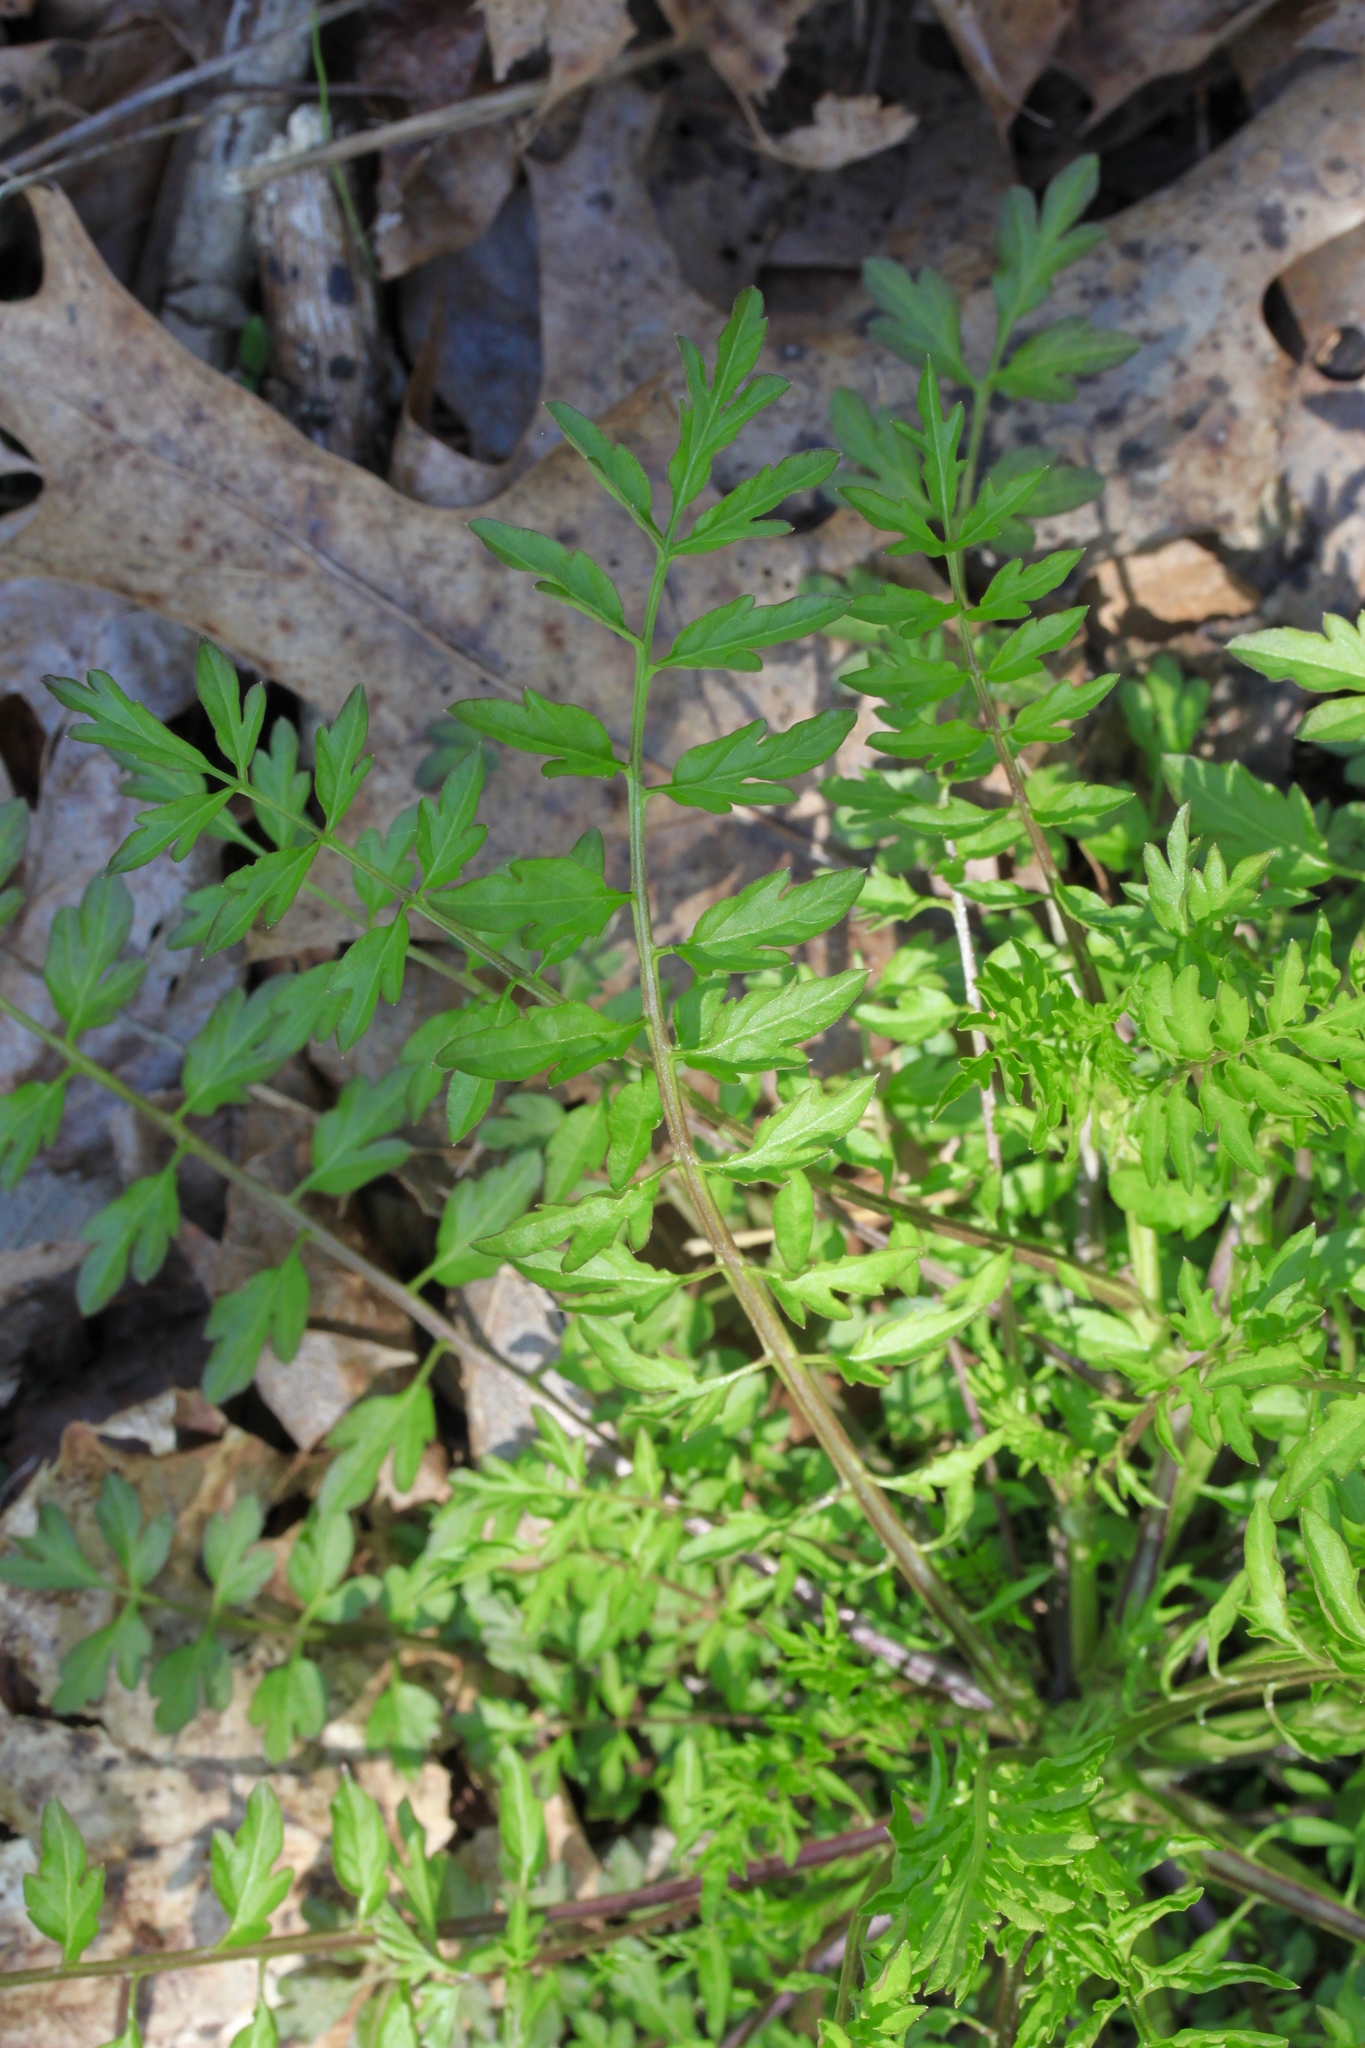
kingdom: Plantae
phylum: Tracheophyta
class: Magnoliopsida
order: Brassicales
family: Brassicaceae
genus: Cardamine
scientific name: Cardamine impatiens
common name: Narrow-leaved bitter-cress
